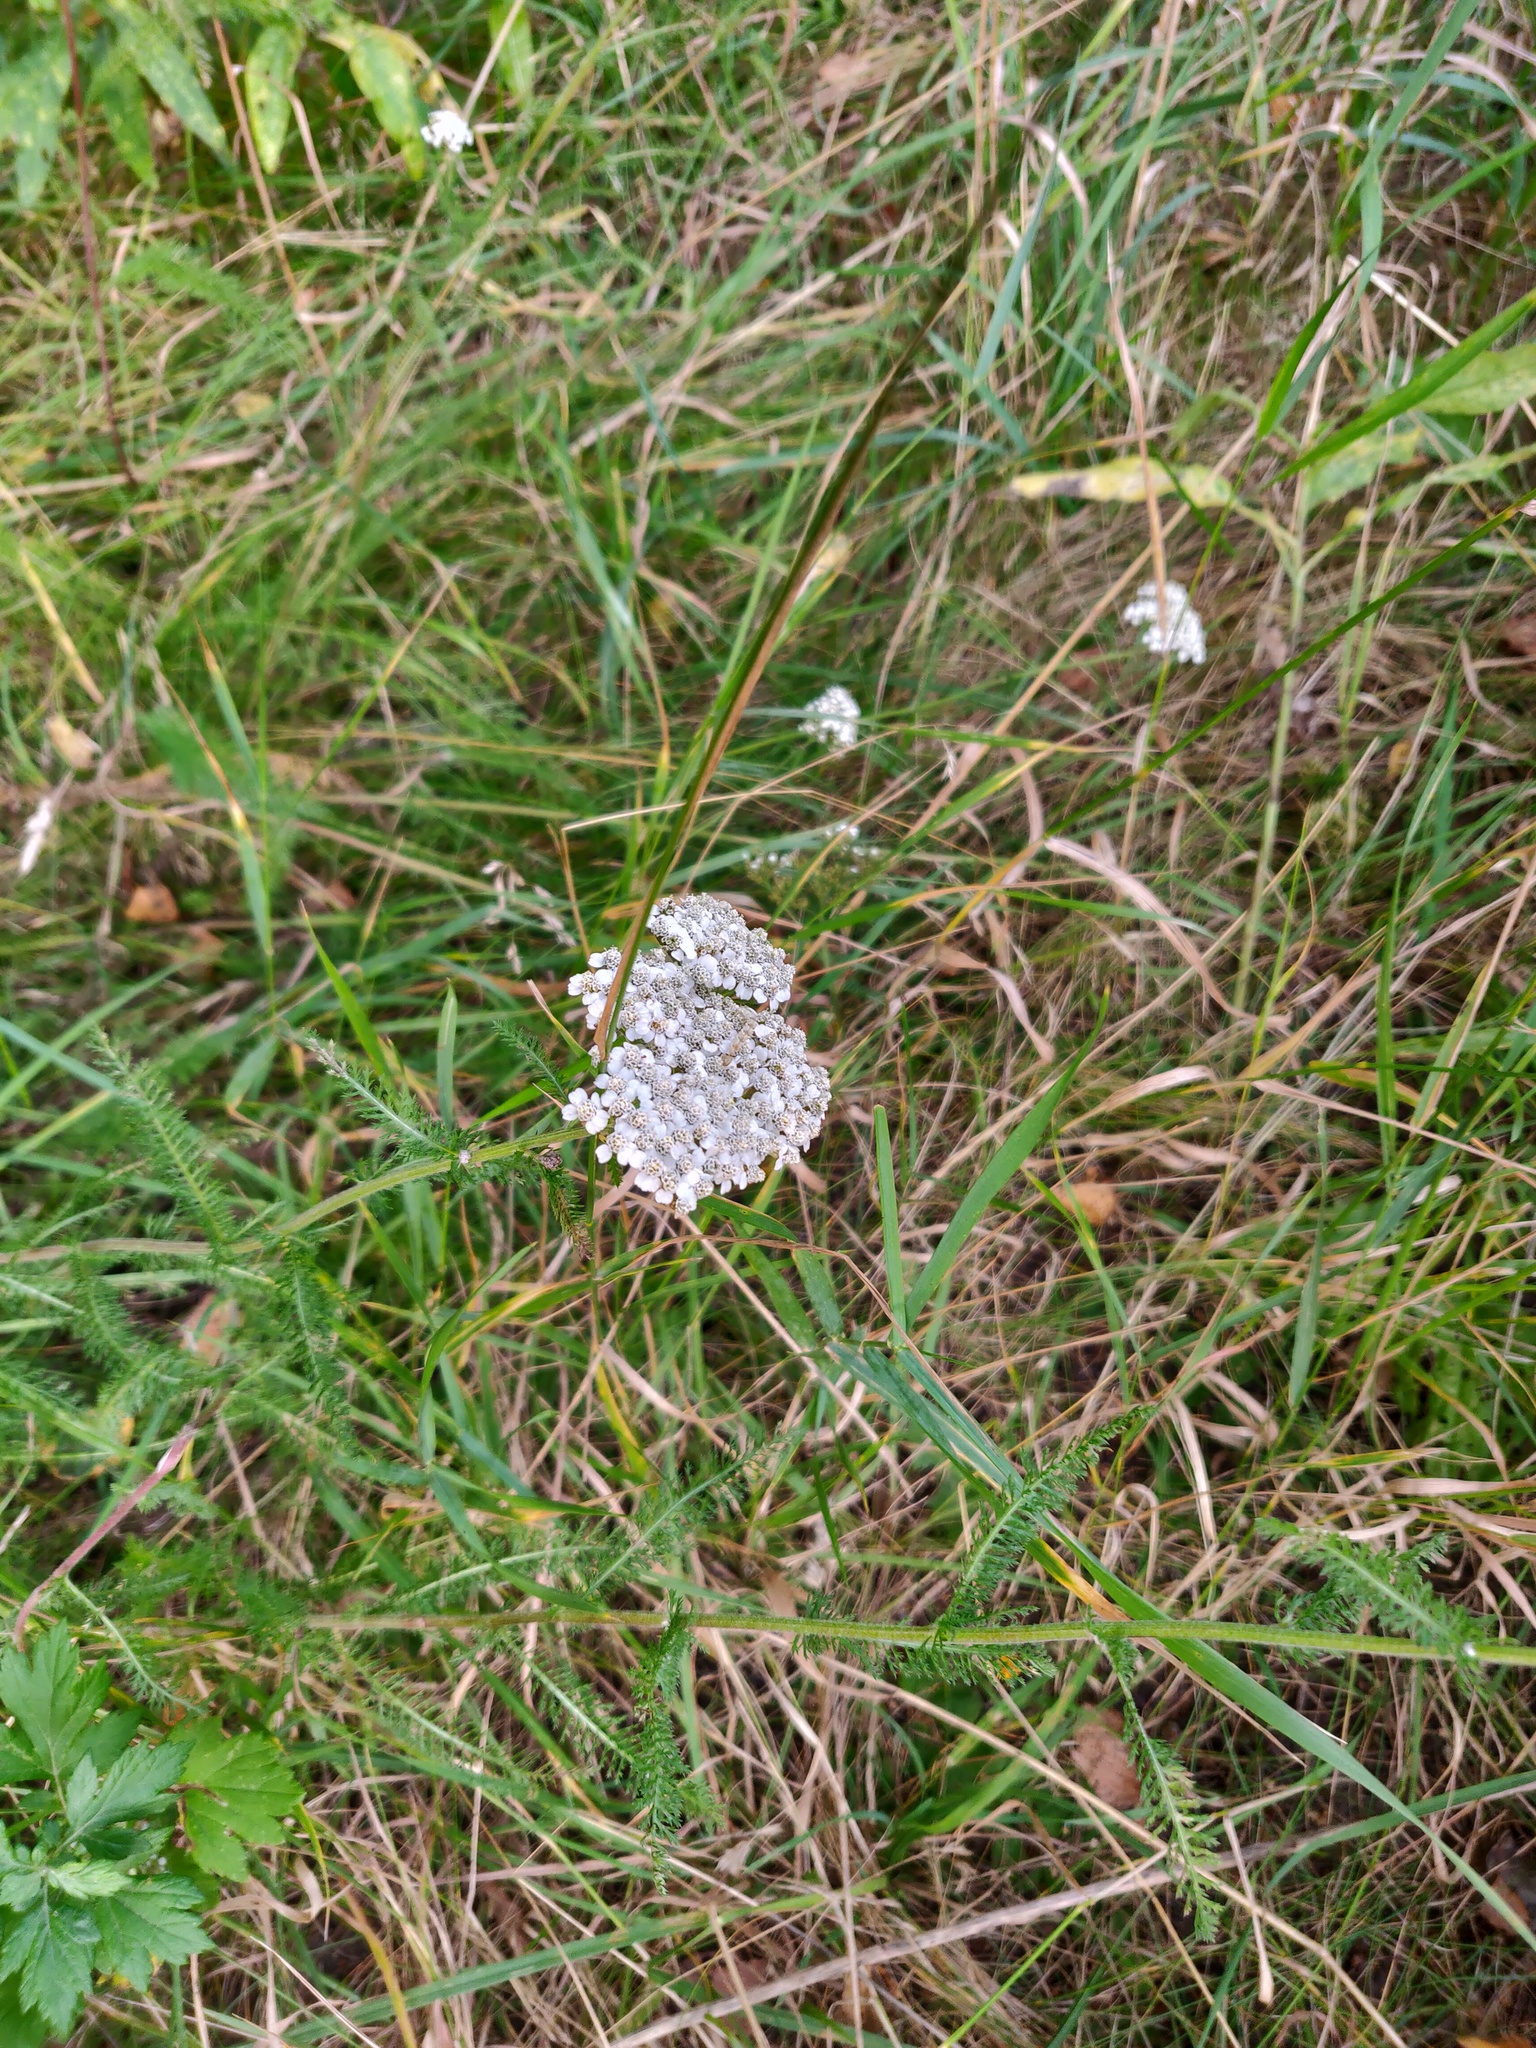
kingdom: Plantae
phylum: Tracheophyta
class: Magnoliopsida
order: Asterales
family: Asteraceae
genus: Achillea
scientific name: Achillea millefolium
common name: Yarrow
